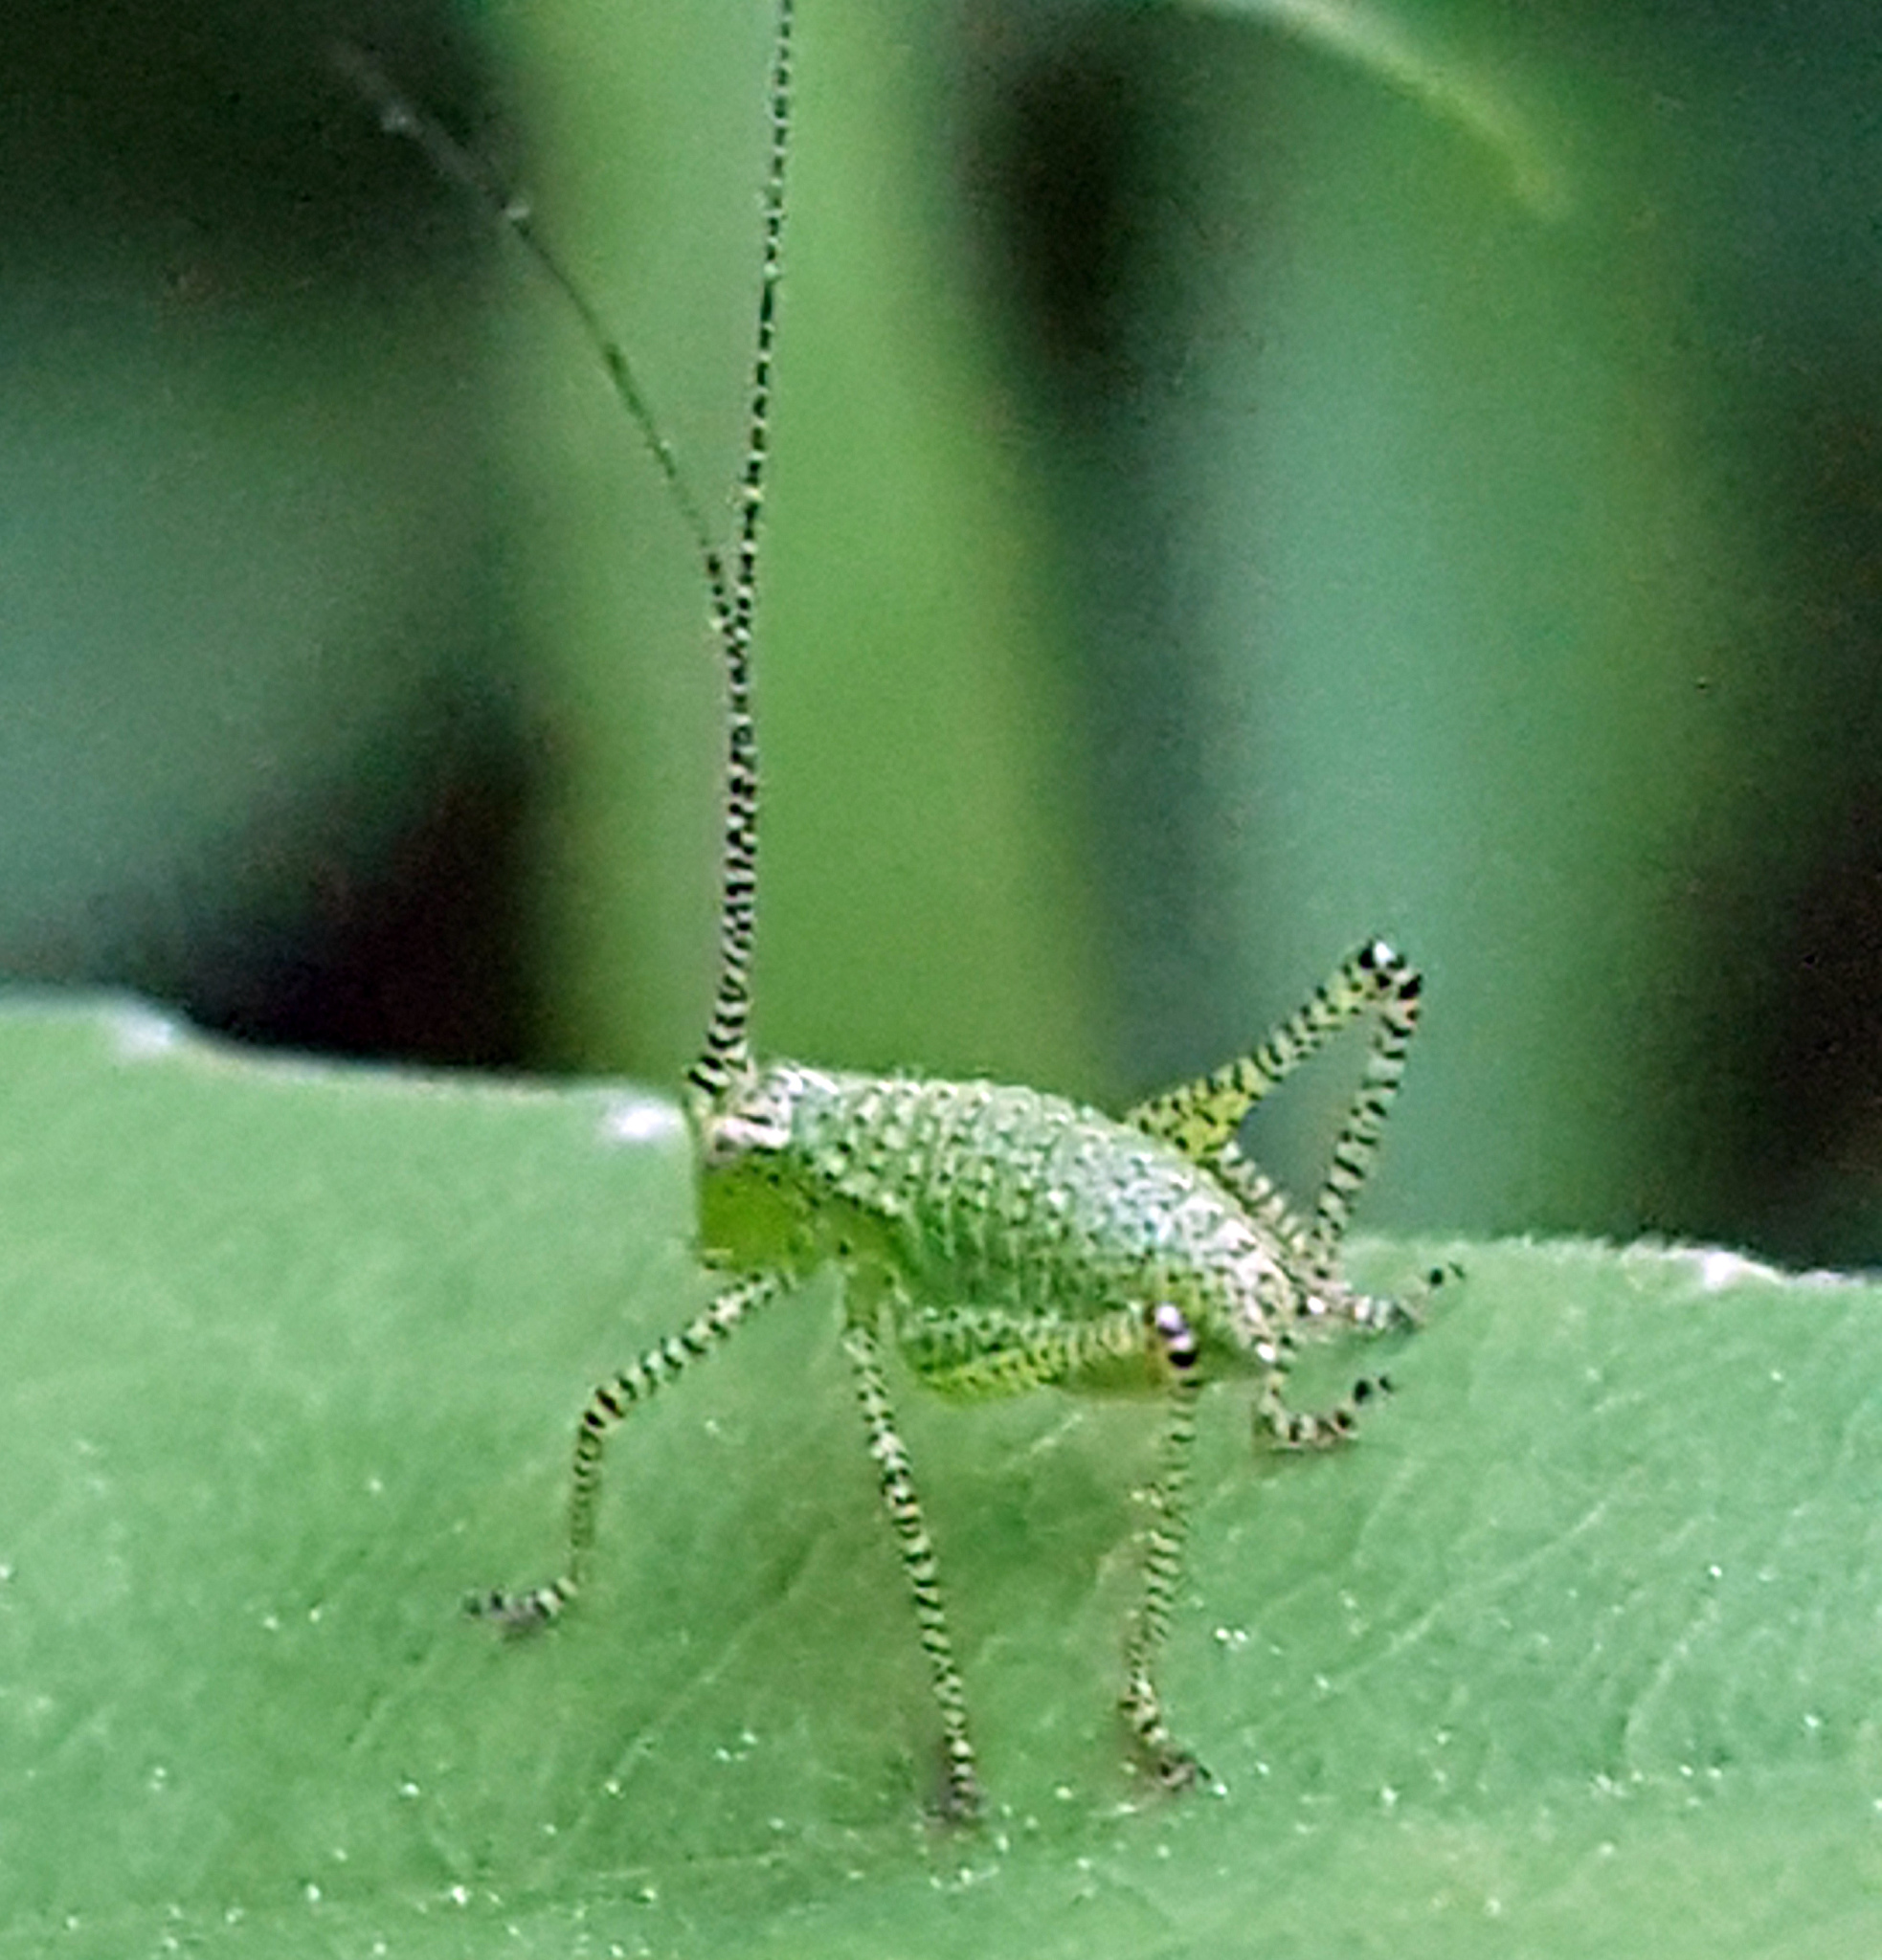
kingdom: Animalia
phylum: Arthropoda
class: Insecta
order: Orthoptera
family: Tettigoniidae
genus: Leptophyes
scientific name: Leptophyes punctatissima
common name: Speckled bush-cricket
